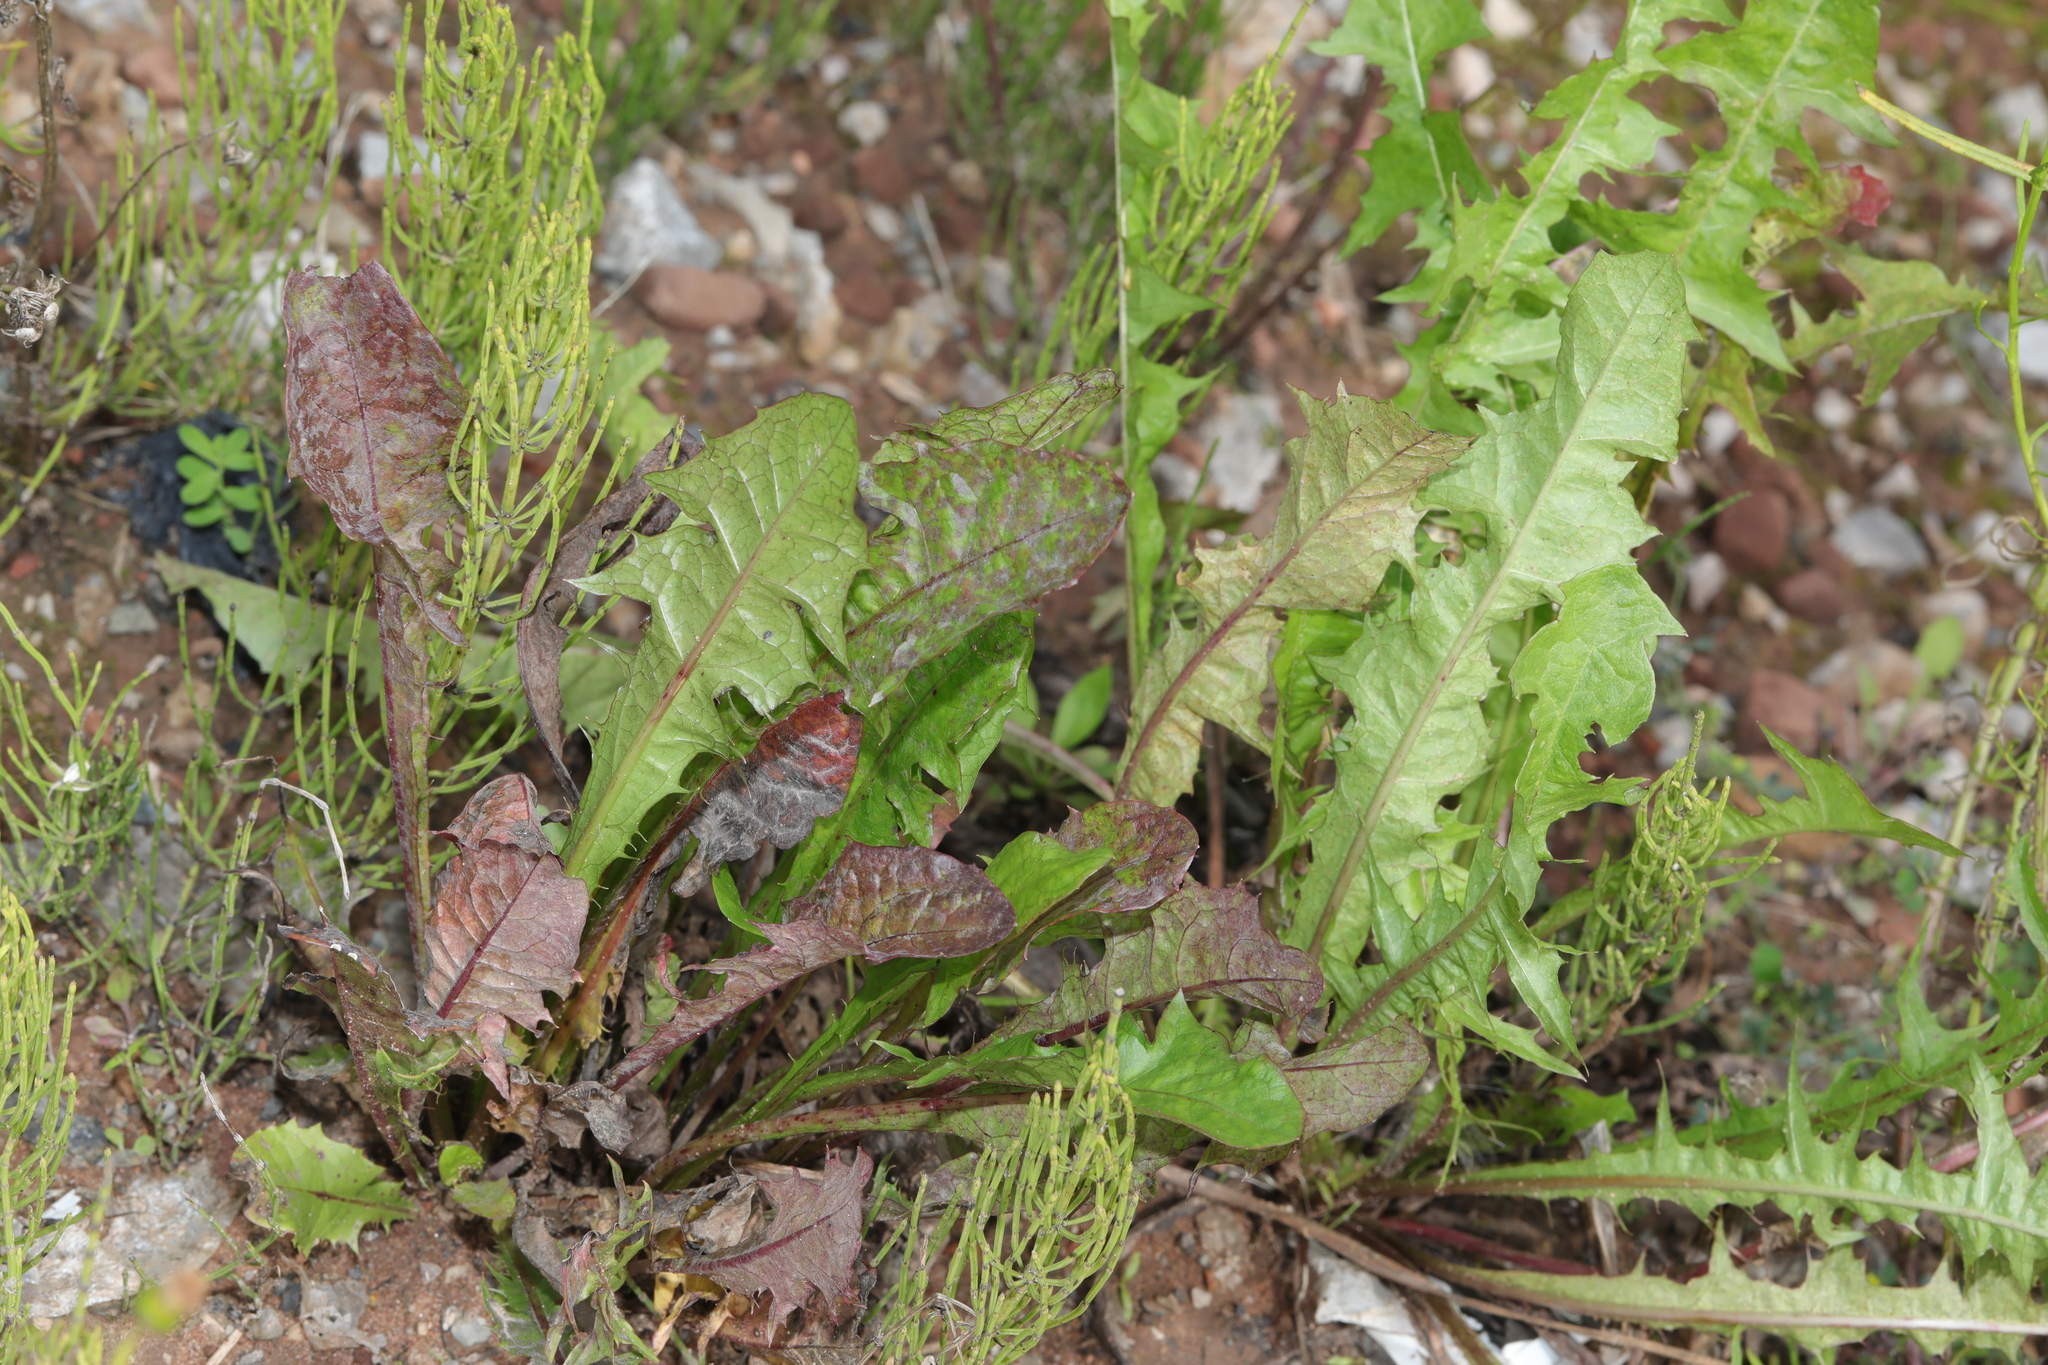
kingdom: Plantae
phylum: Tracheophyta
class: Magnoliopsida
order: Asterales
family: Asteraceae
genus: Taraxacum
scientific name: Taraxacum officinale
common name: Common dandelion
